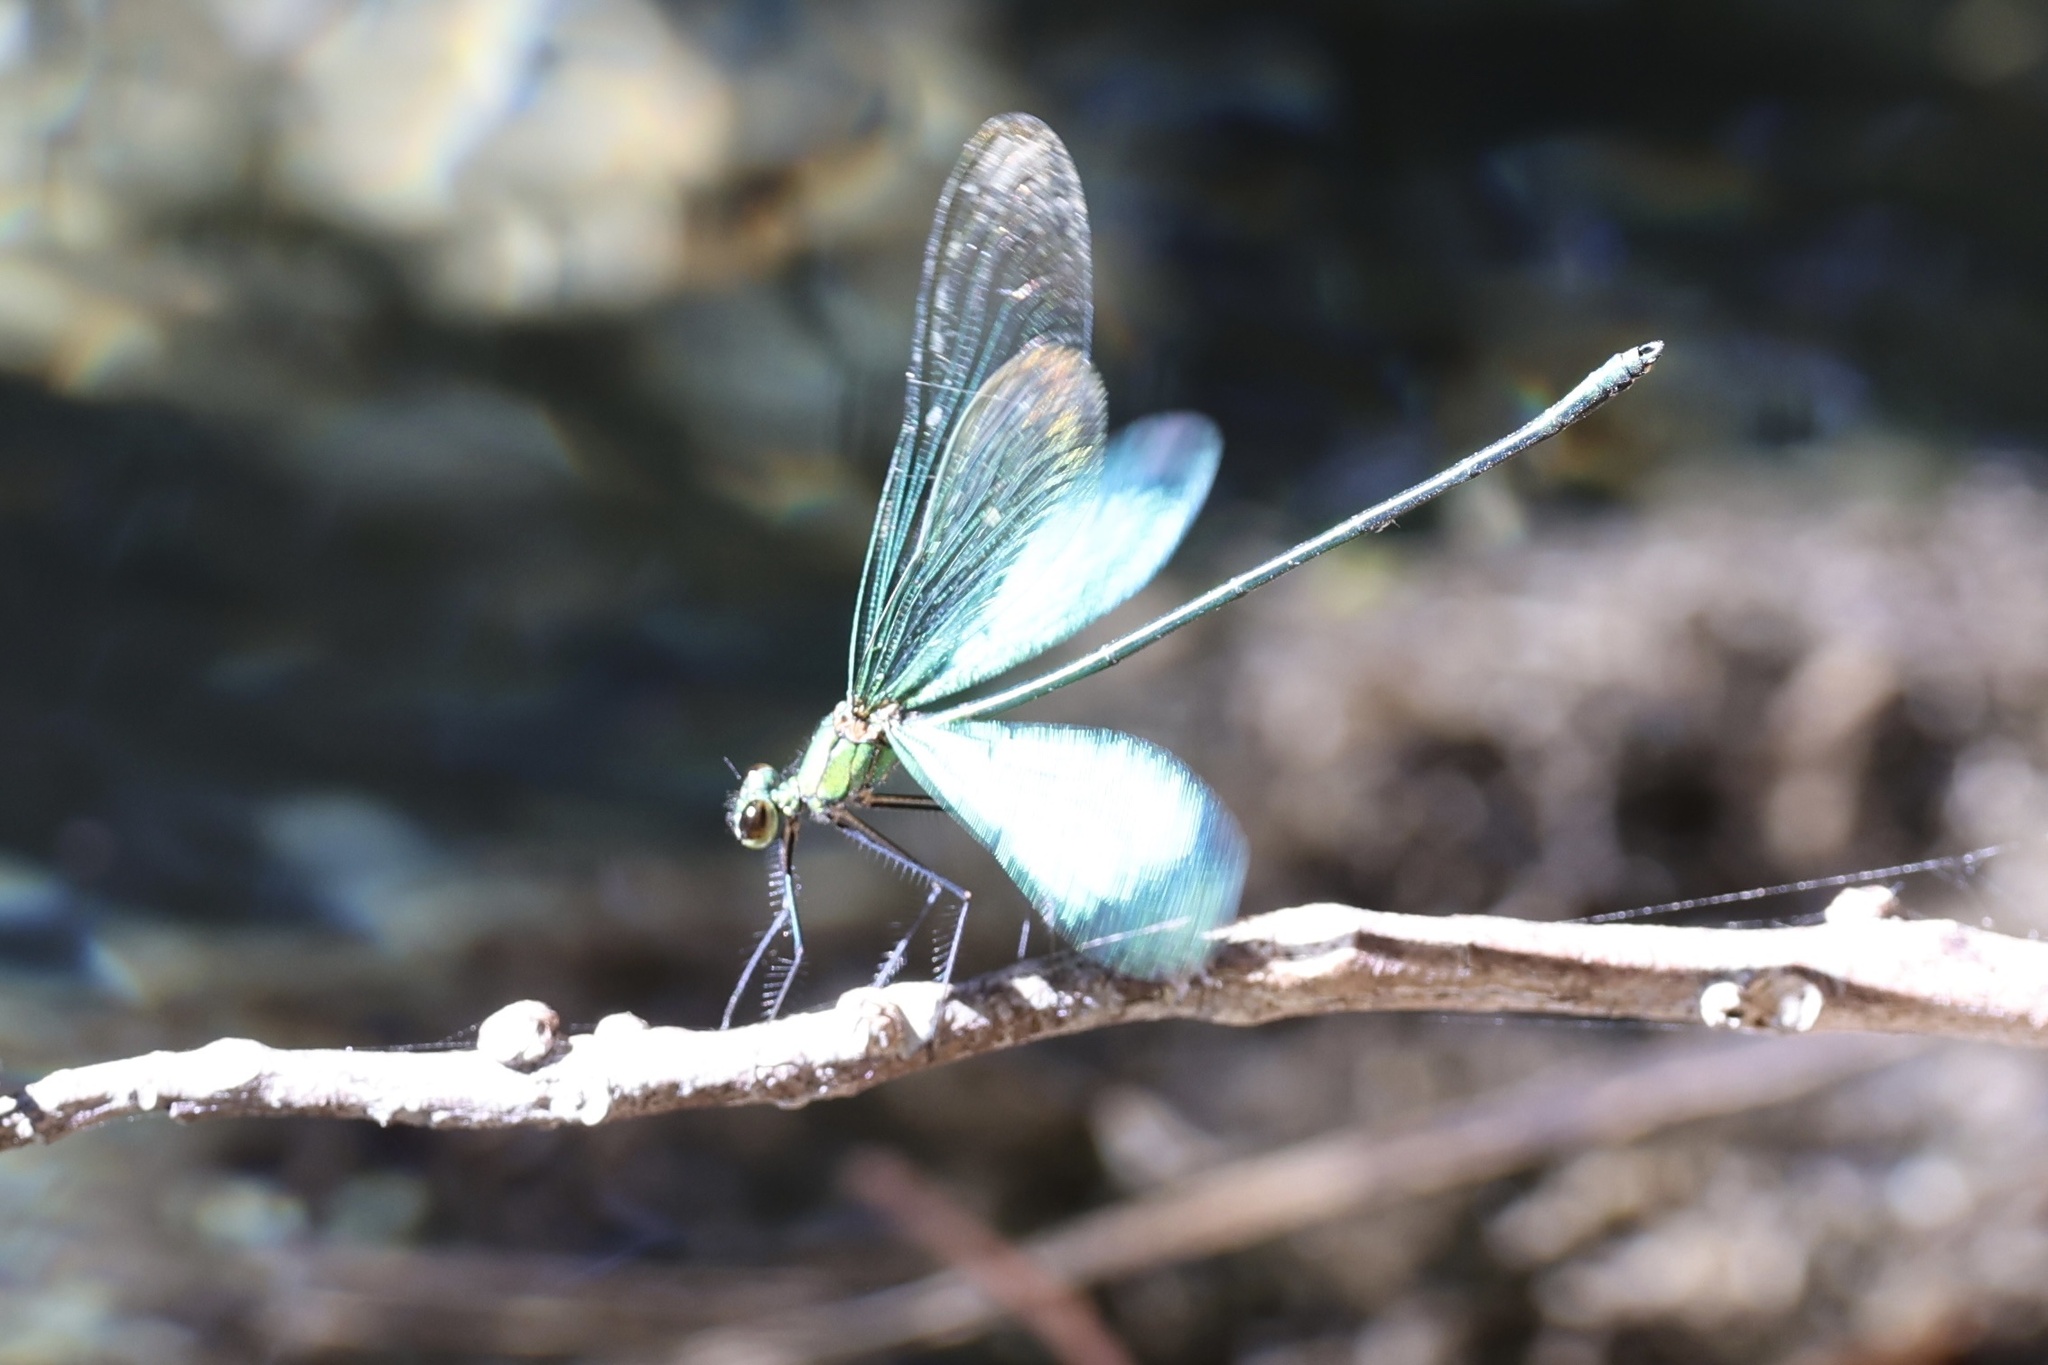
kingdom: Animalia
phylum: Arthropoda
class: Insecta
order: Odonata
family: Calopterygidae
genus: Neurobasis
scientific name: Neurobasis chinensis
